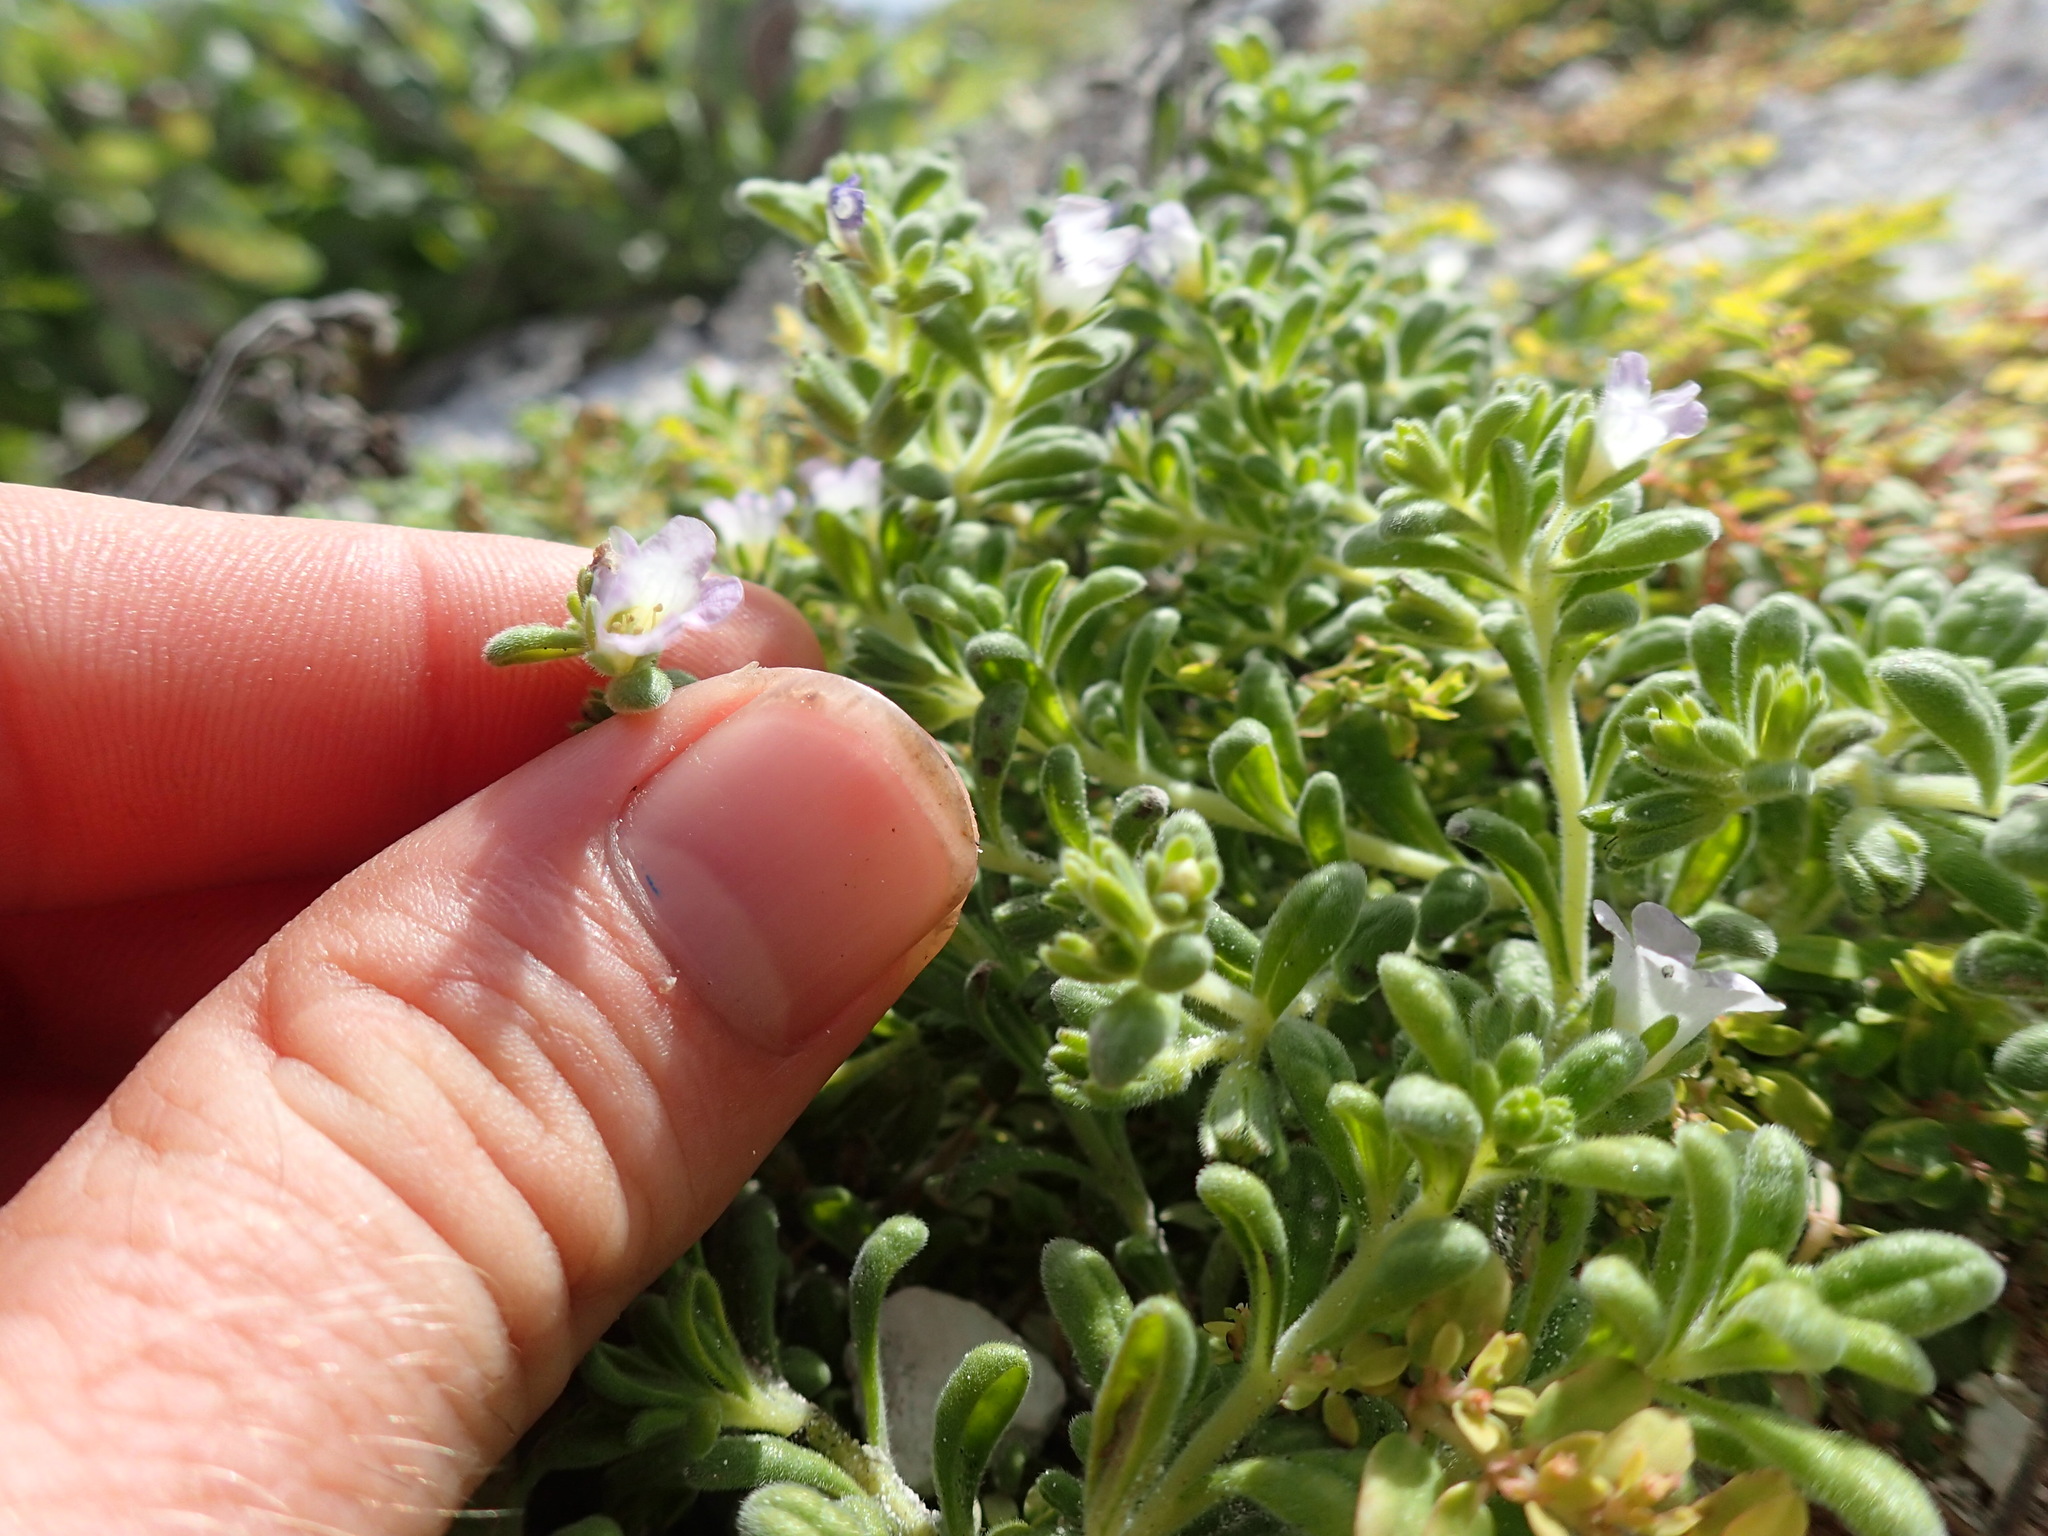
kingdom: Plantae
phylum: Tracheophyta
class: Magnoliopsida
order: Boraginales
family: Namaceae
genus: Nama
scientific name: Nama sandwicense
